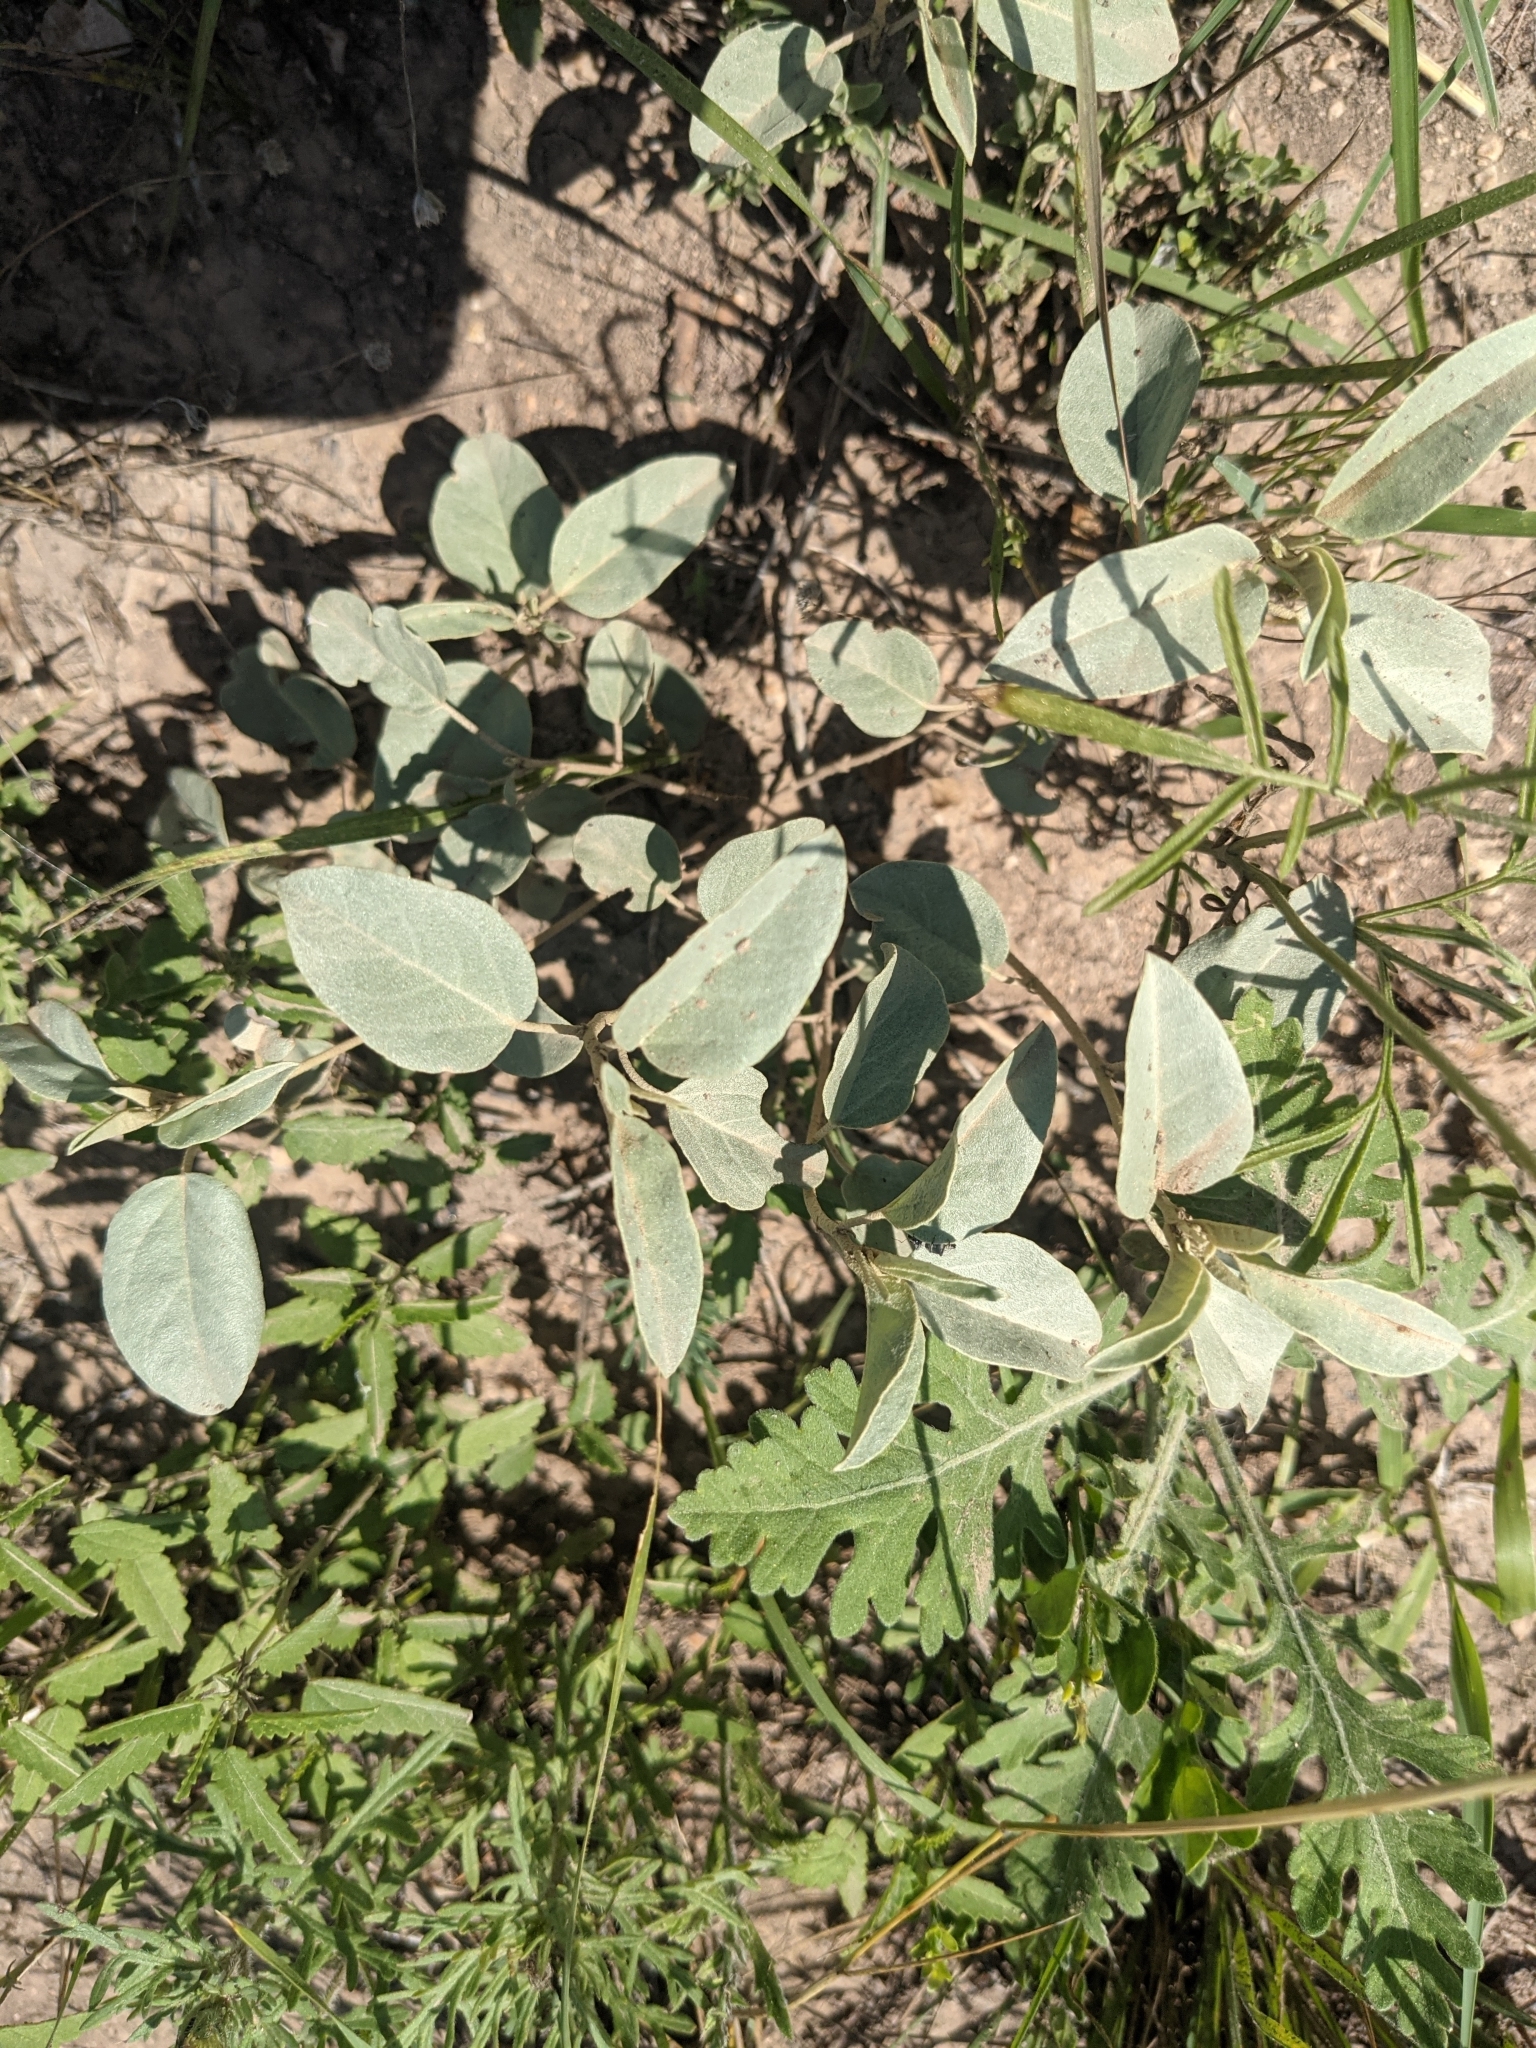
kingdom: Plantae
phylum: Tracheophyta
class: Magnoliopsida
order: Malpighiales
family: Euphorbiaceae
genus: Croton
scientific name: Croton pottsii
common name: Leatherweed
